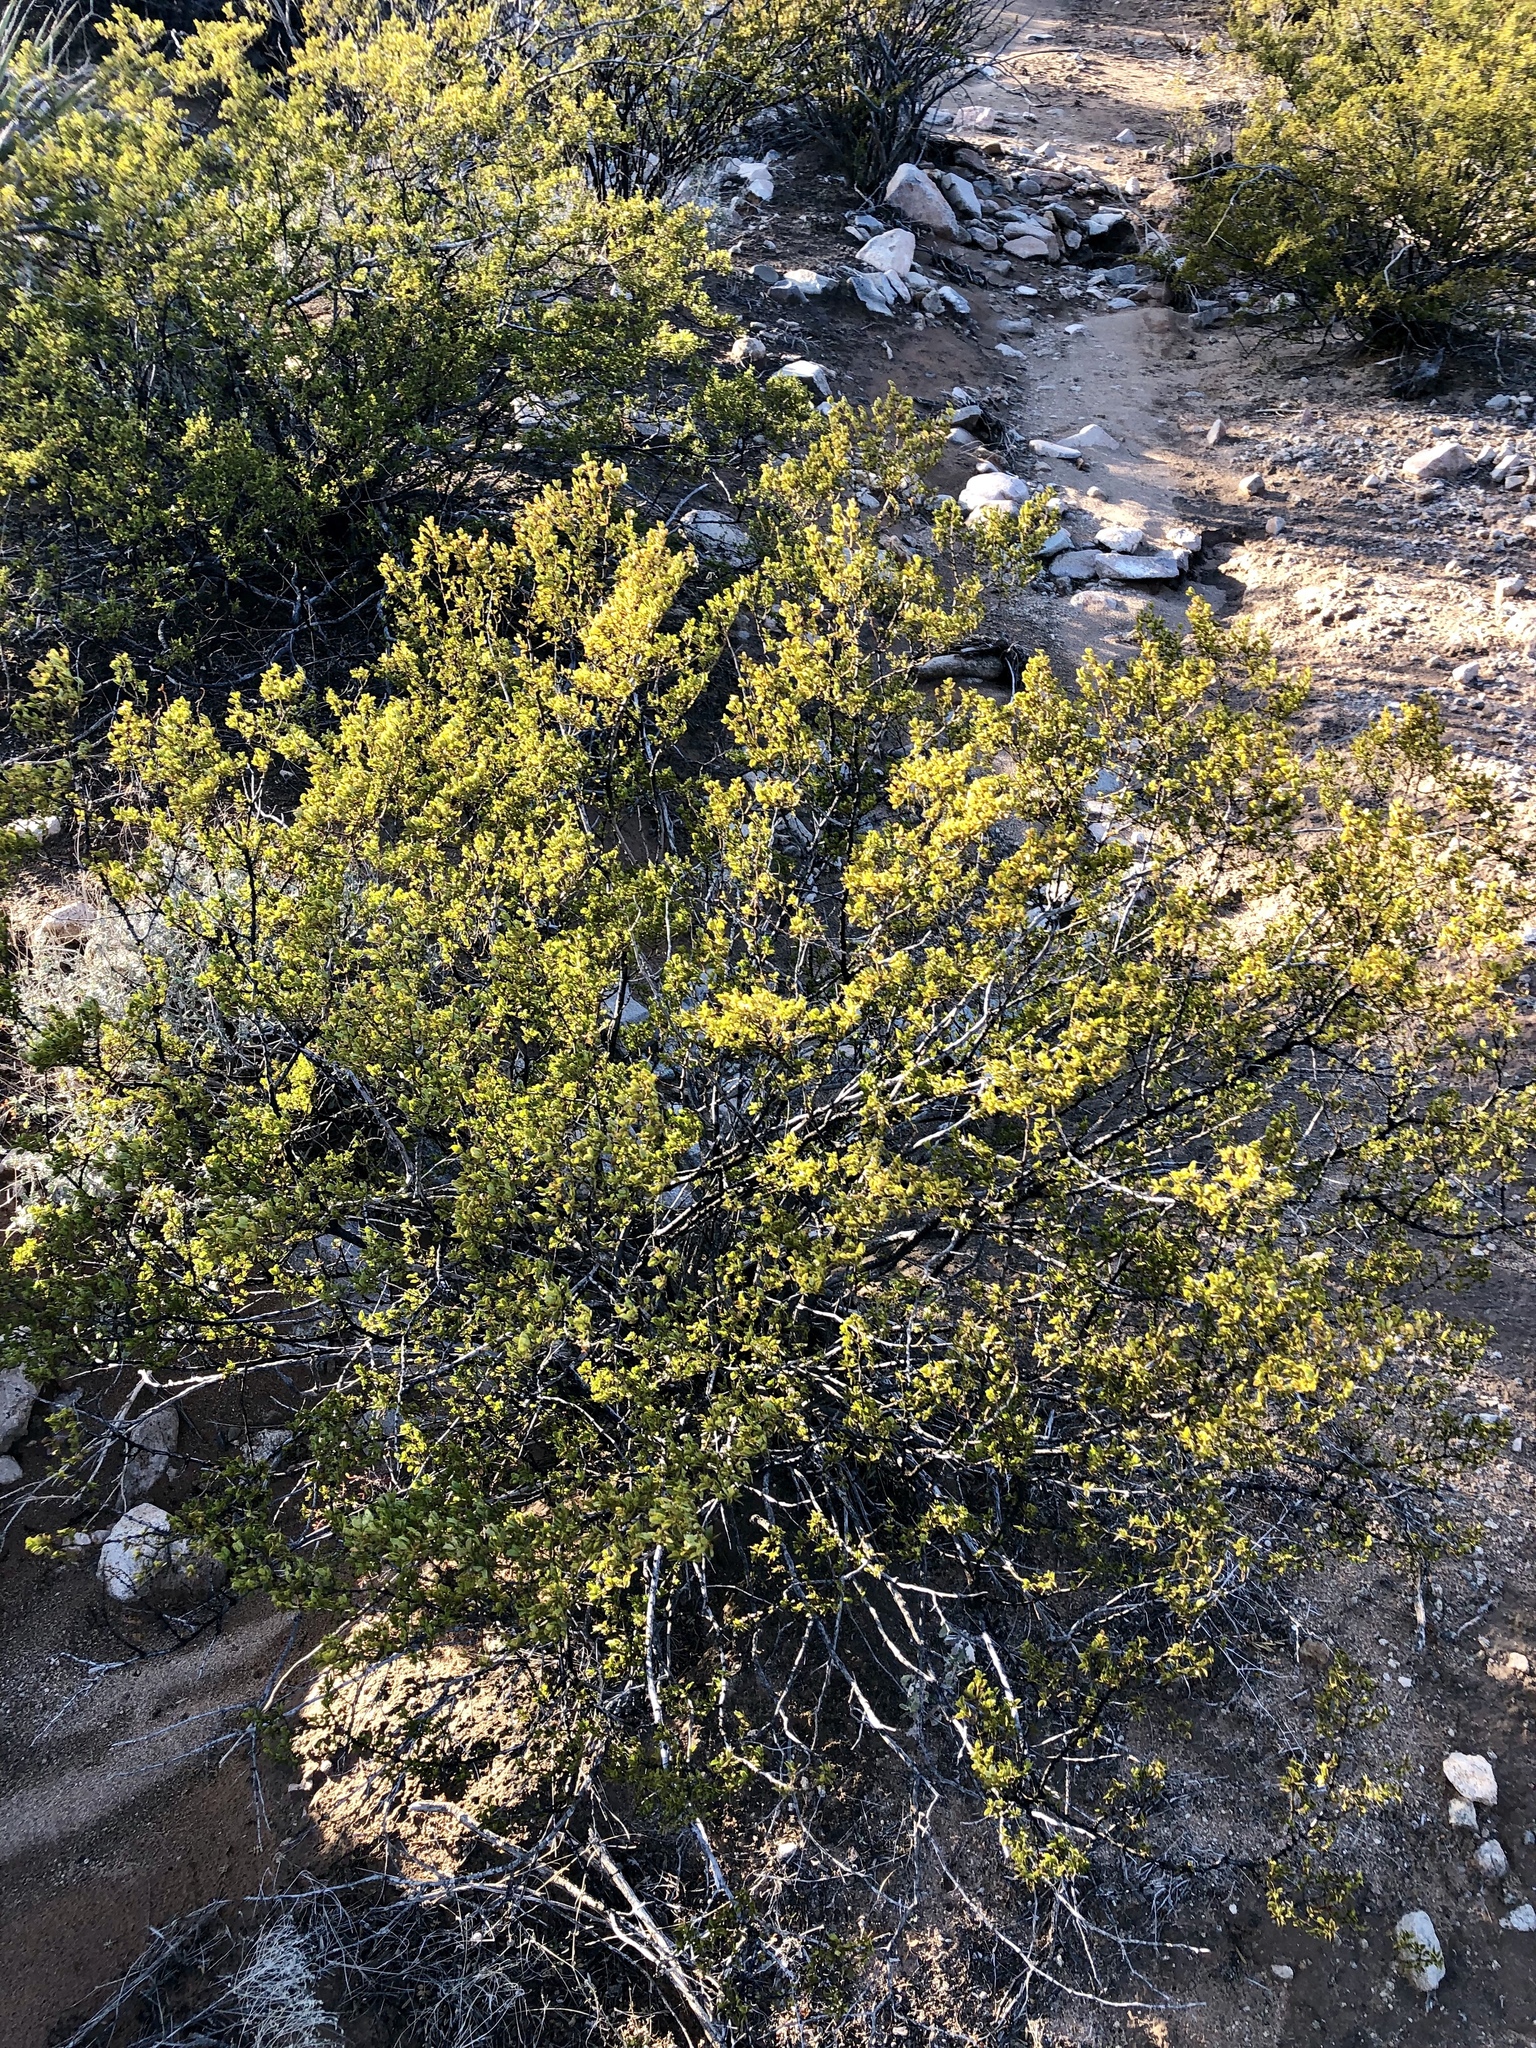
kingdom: Plantae
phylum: Tracheophyta
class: Magnoliopsida
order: Zygophyllales
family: Zygophyllaceae
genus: Larrea
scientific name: Larrea tridentata
